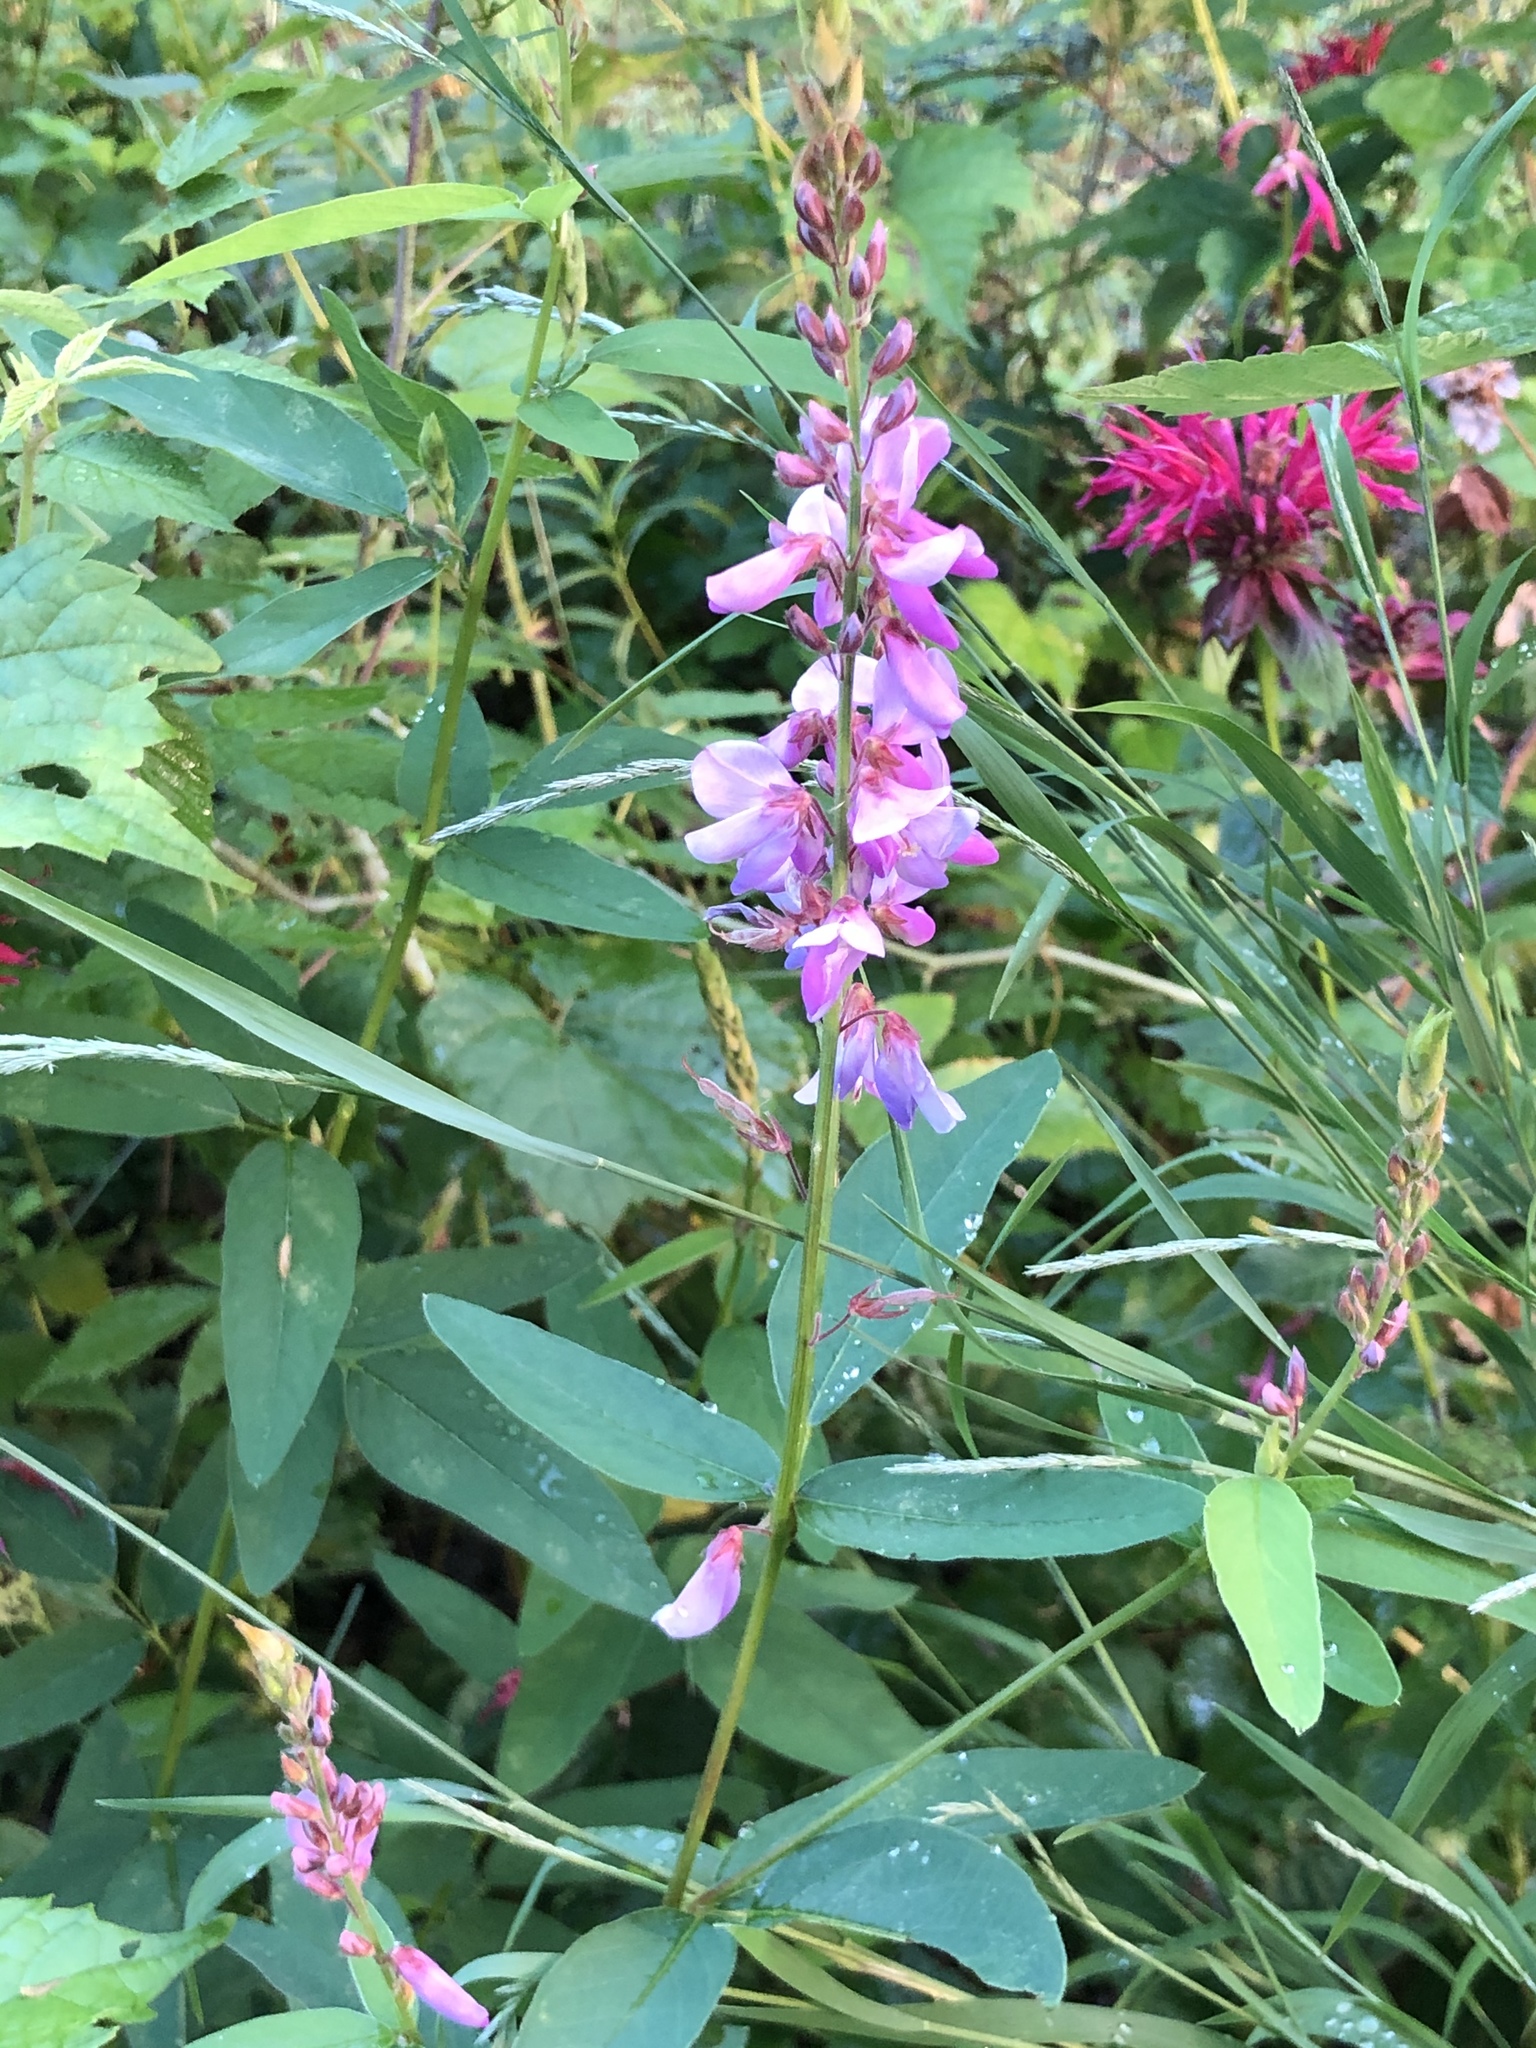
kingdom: Plantae
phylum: Tracheophyta
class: Magnoliopsida
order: Fabales
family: Fabaceae
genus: Desmodium
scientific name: Desmodium canadense
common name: Canada tick-trefoil
